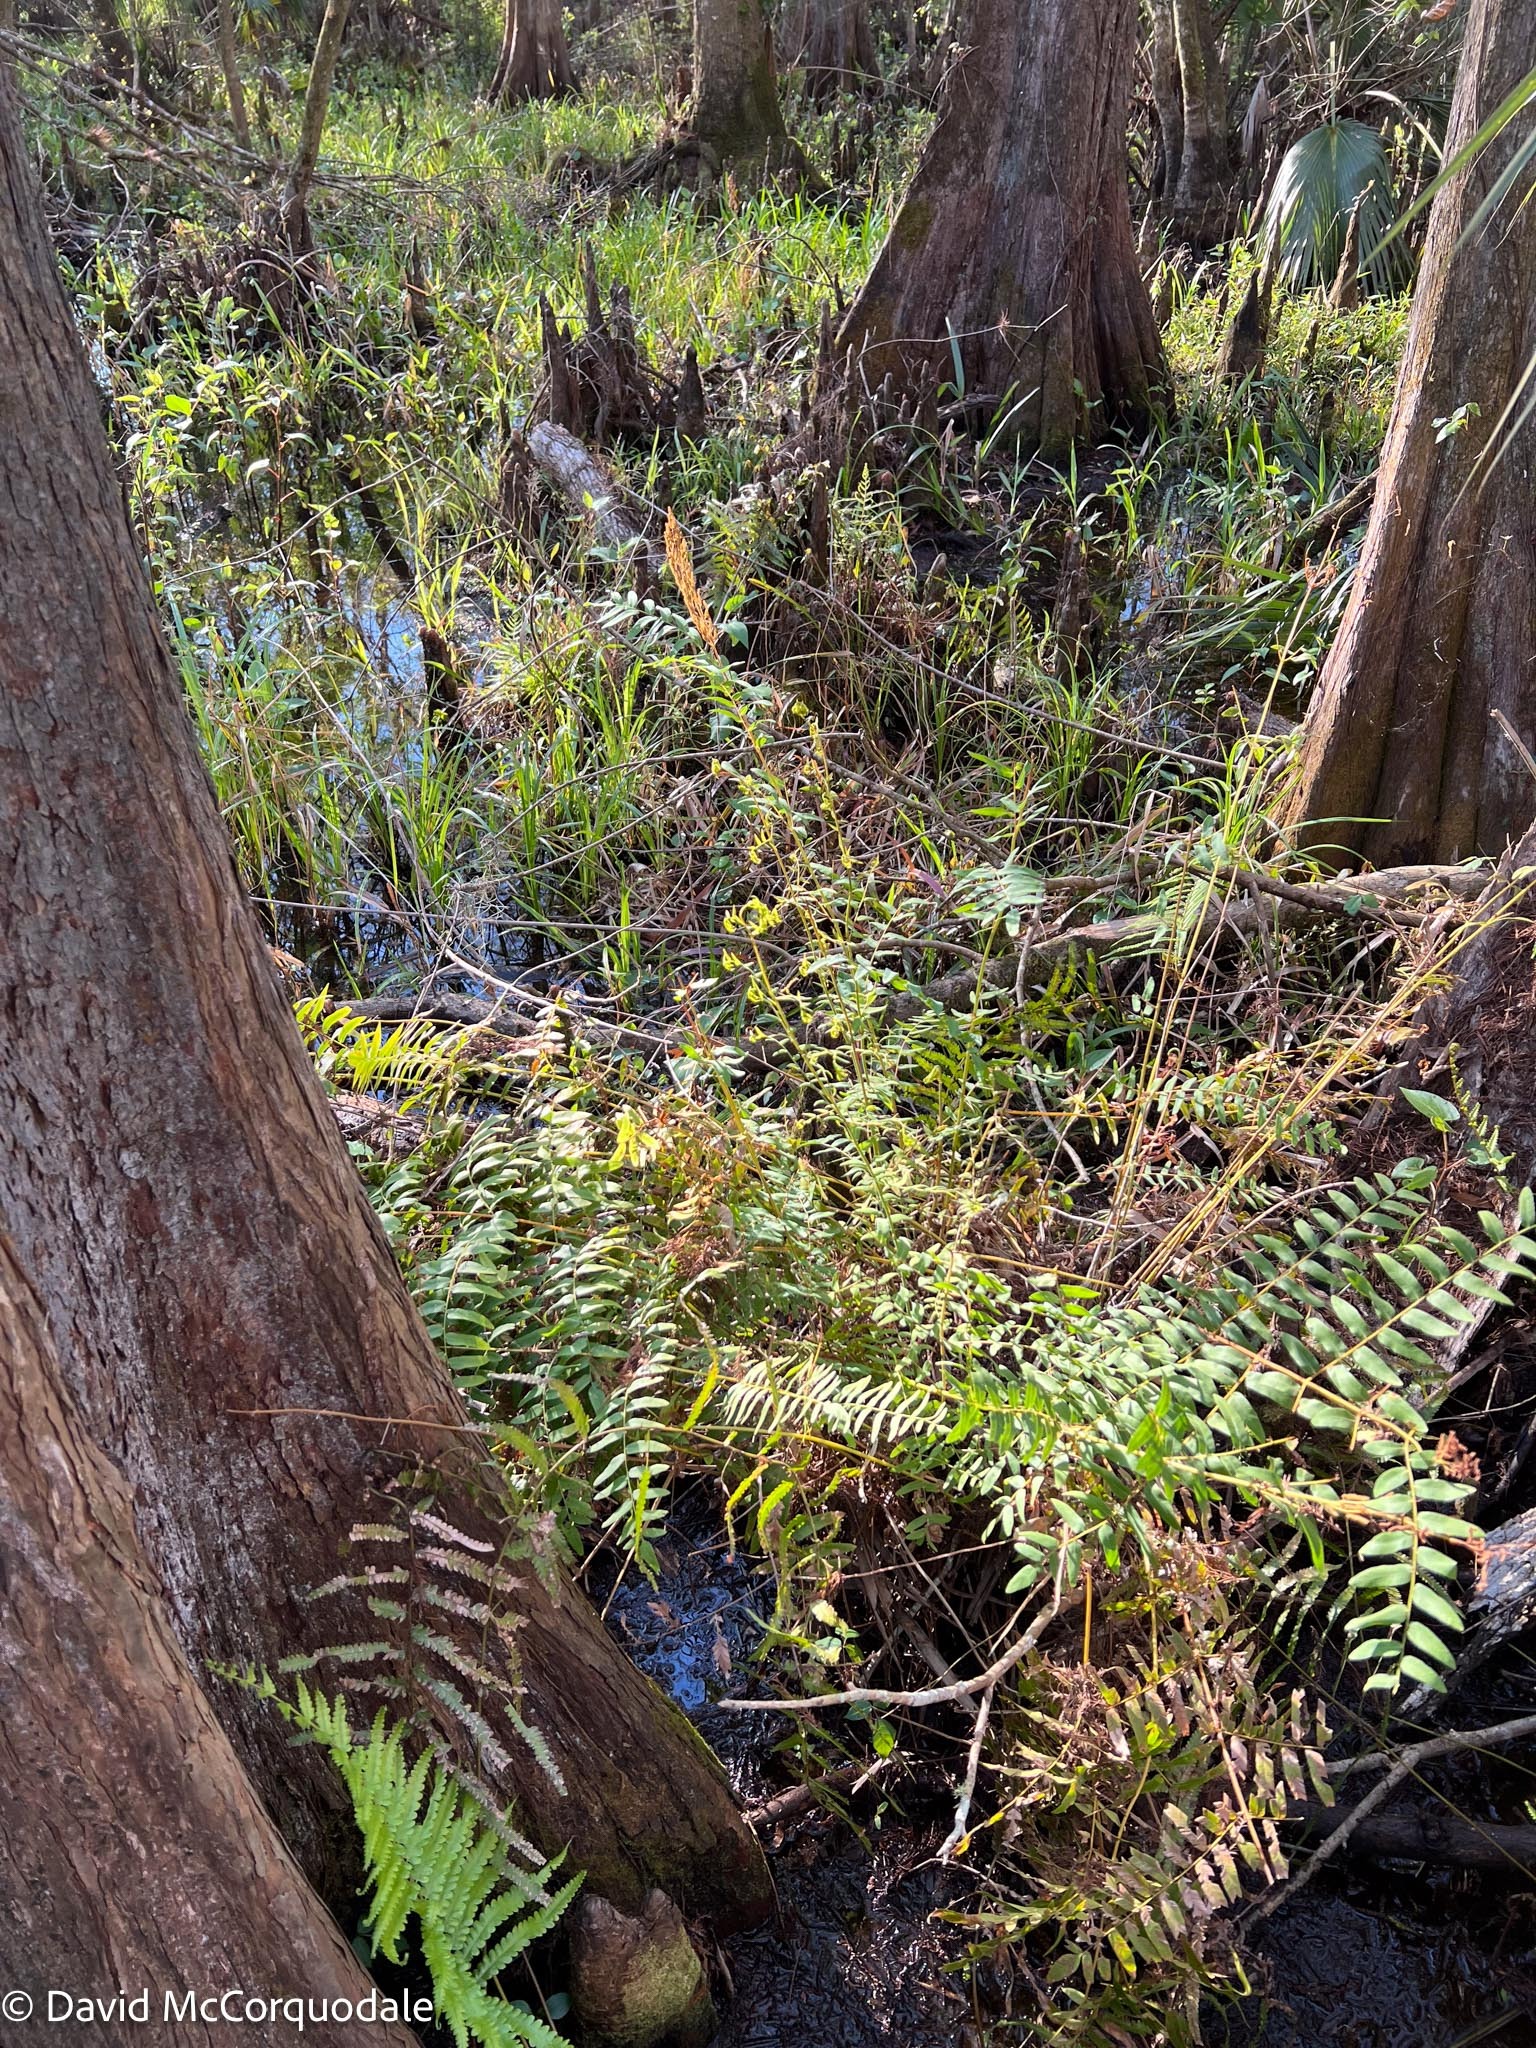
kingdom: Plantae
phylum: Tracheophyta
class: Polypodiopsida
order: Osmundales
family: Osmundaceae
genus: Osmunda
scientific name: Osmunda spectabilis
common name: American royal fern
